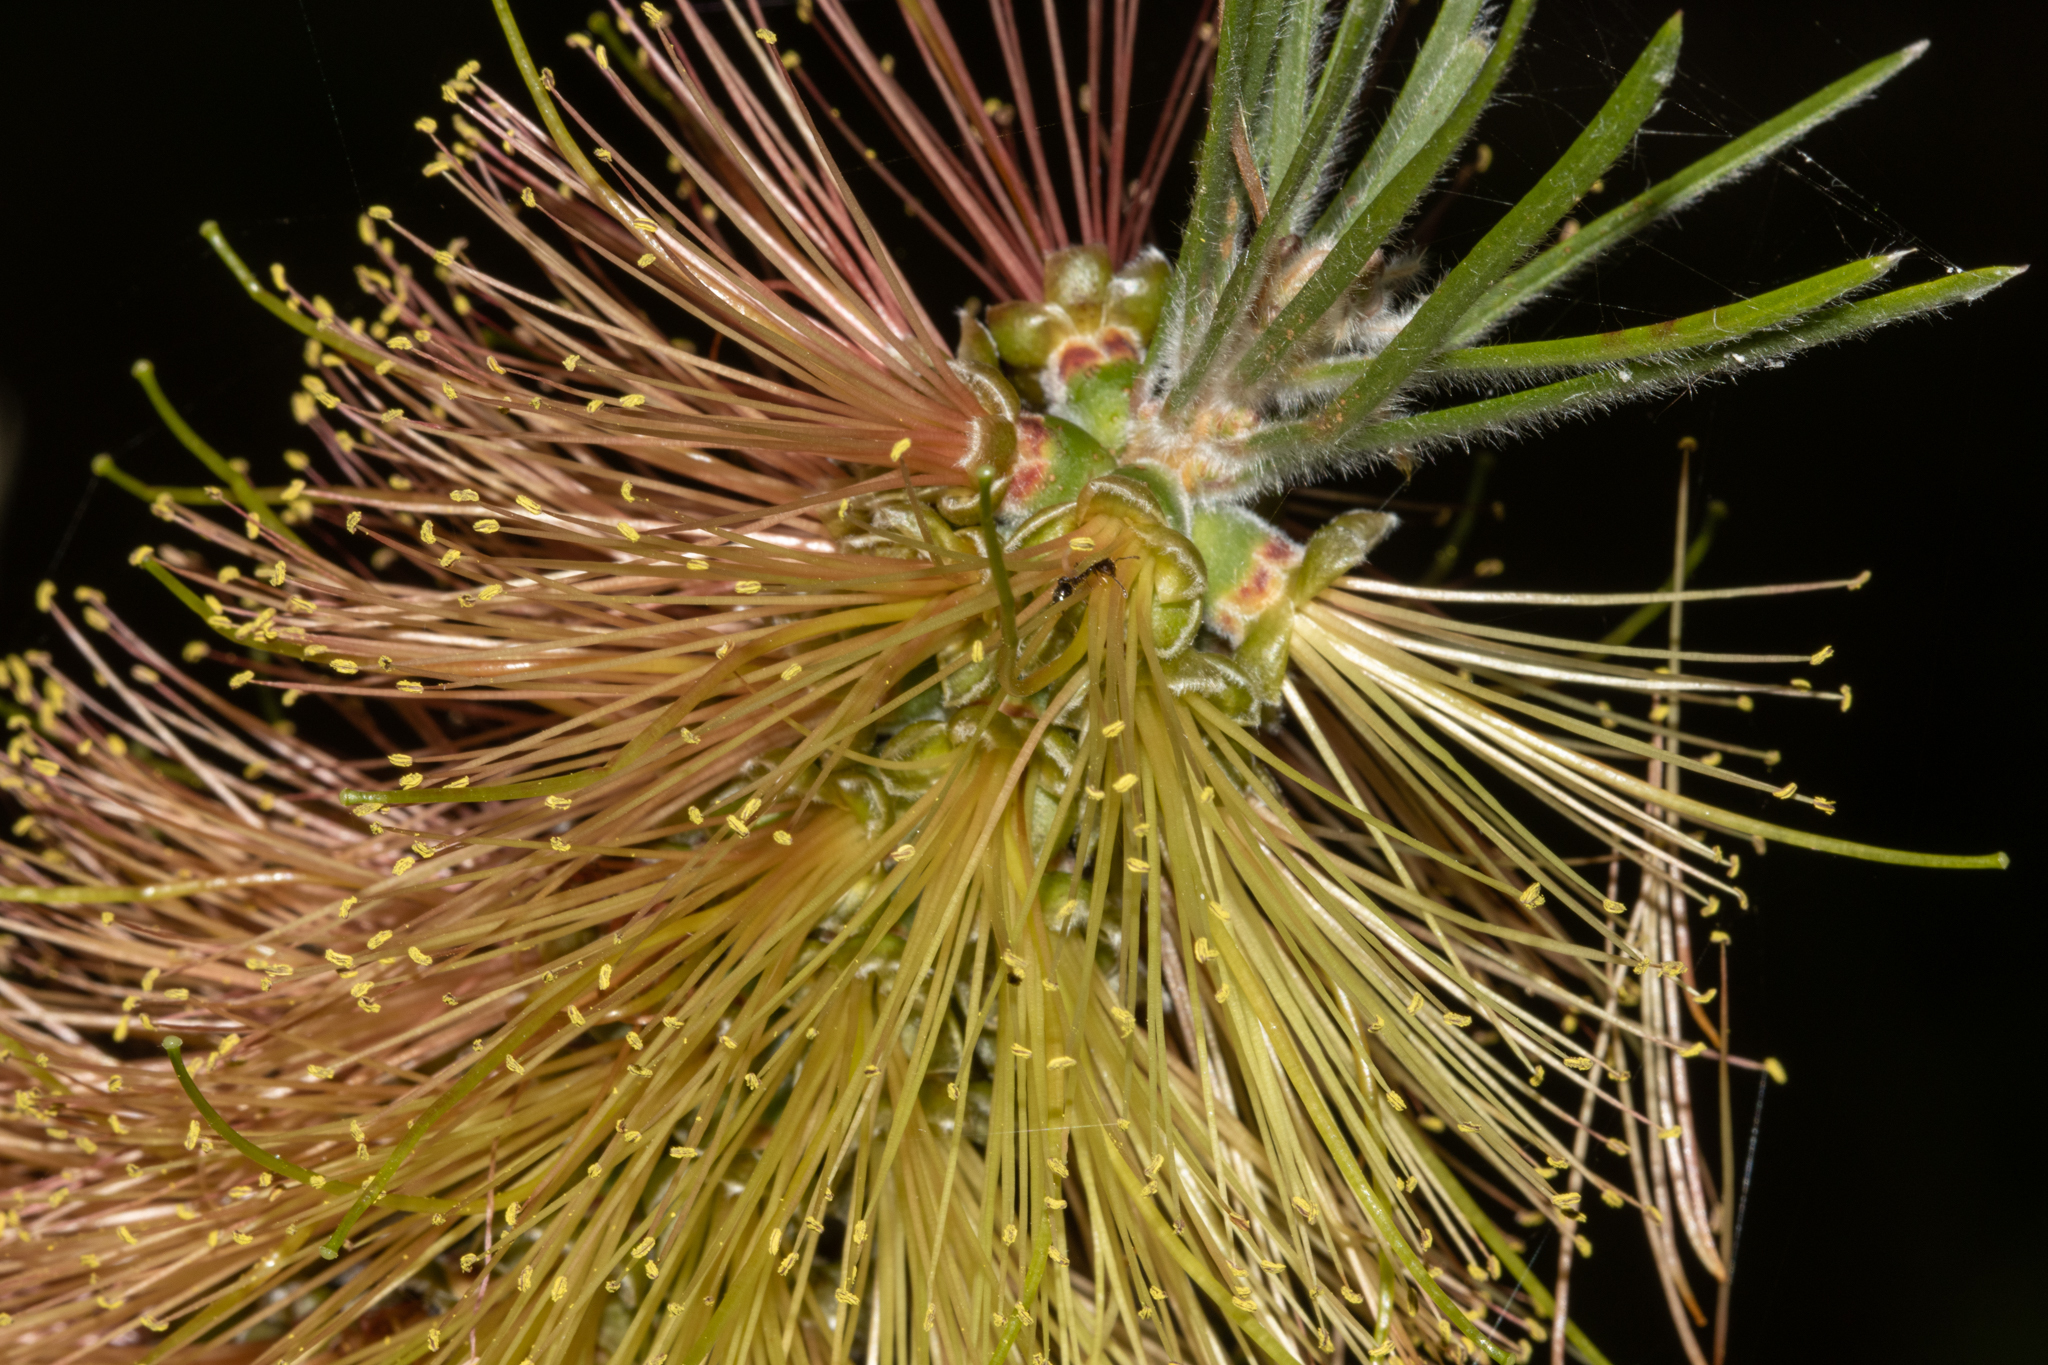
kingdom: Plantae
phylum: Tracheophyta
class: Magnoliopsida
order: Myrtales
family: Myrtaceae
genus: Callistemon
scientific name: Callistemon linearis
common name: Narrow-leaf bottlebrush
